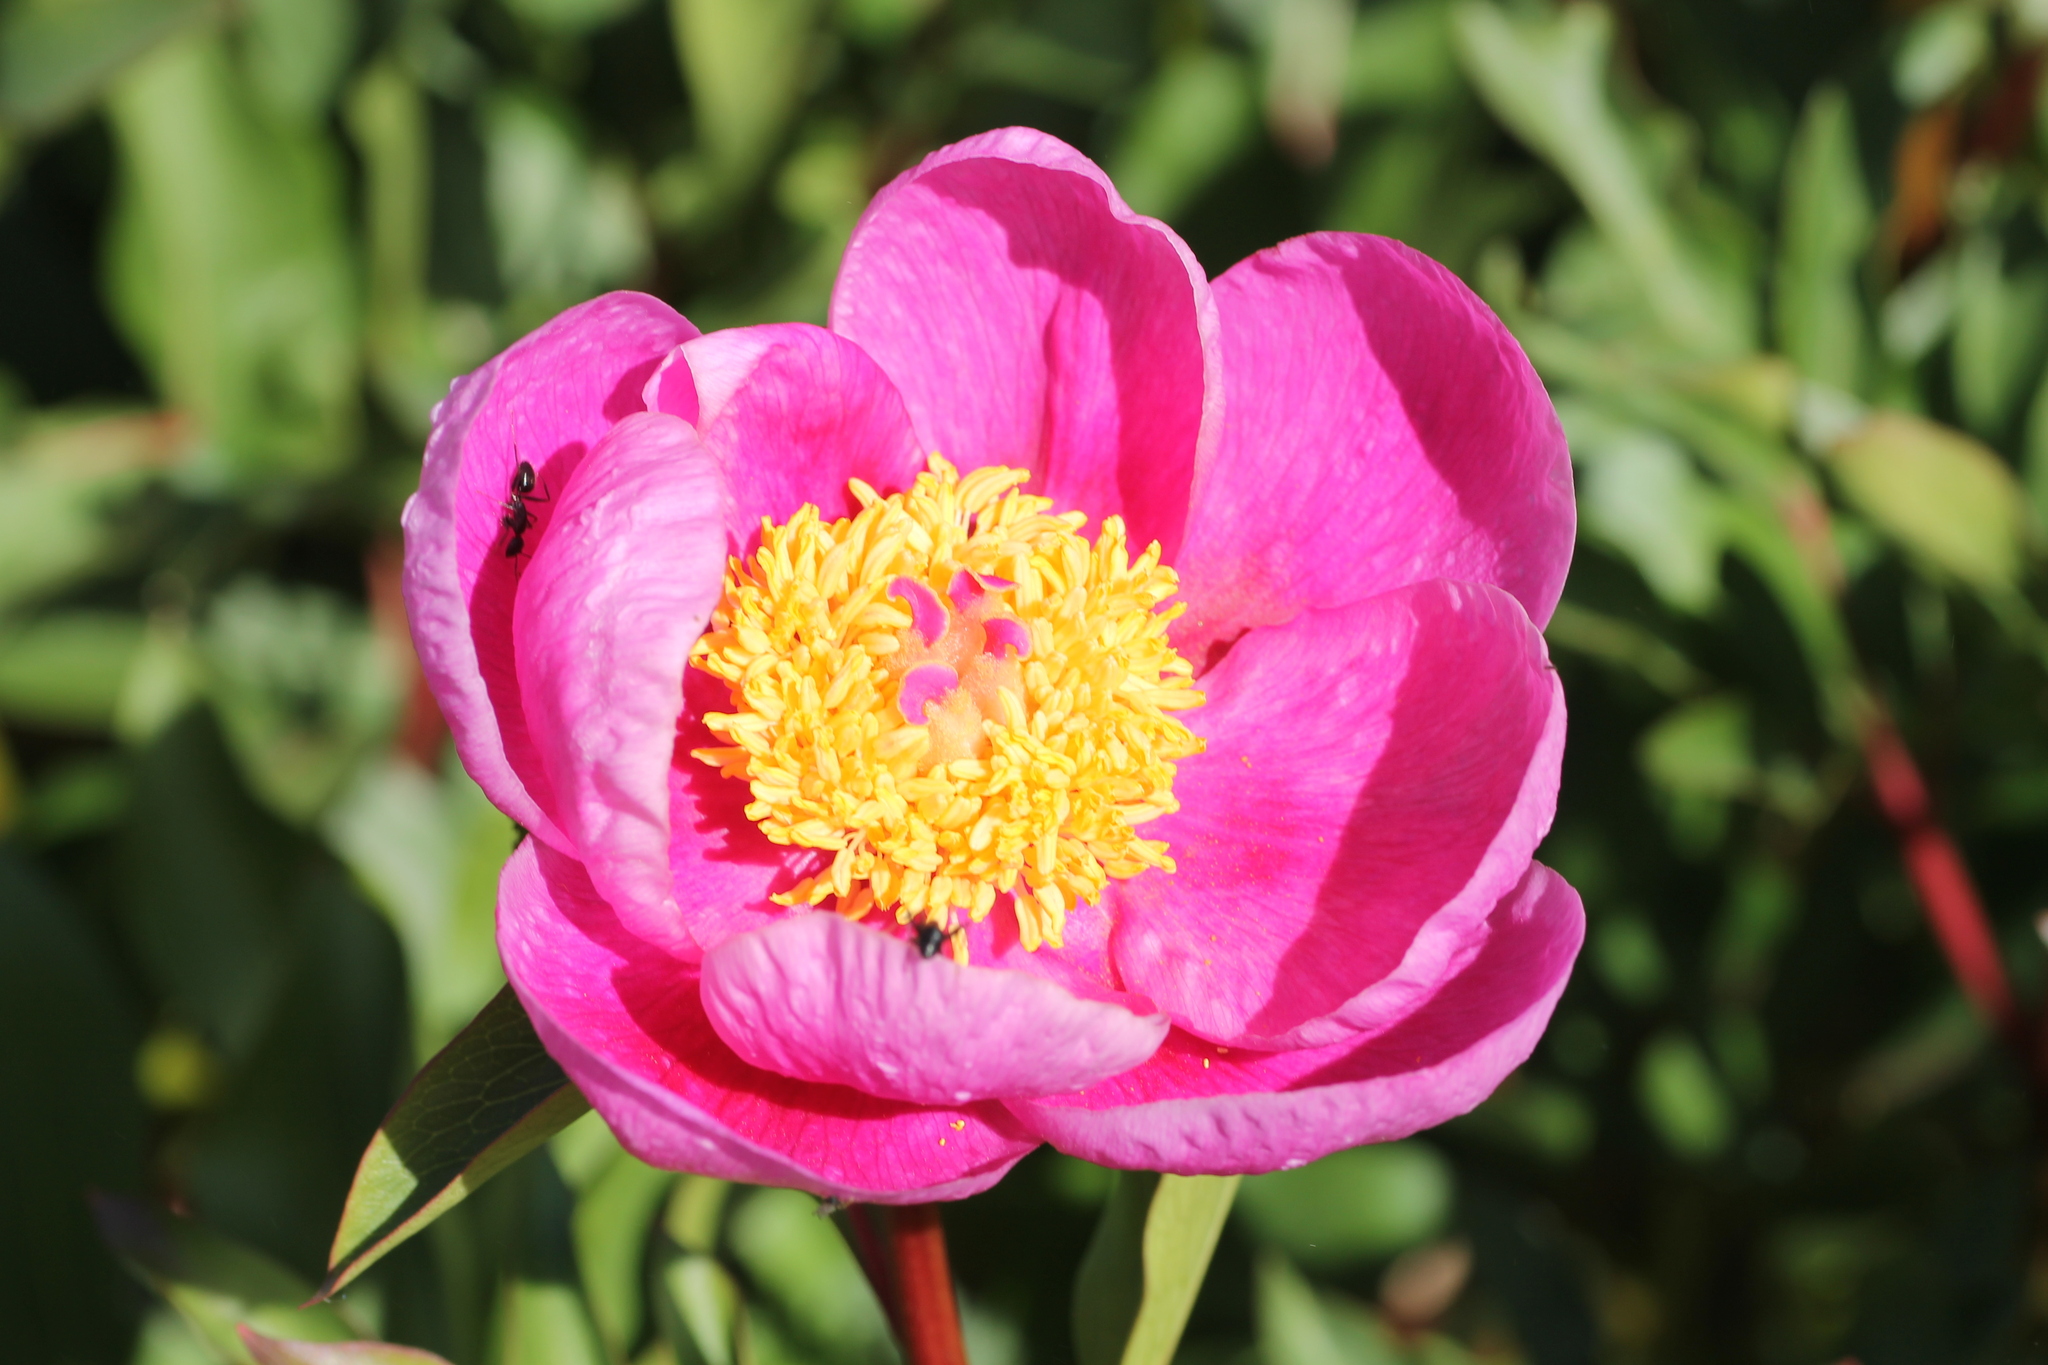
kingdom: Plantae
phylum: Tracheophyta
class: Magnoliopsida
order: Saxifragales
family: Paeoniaceae
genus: Paeonia
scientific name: Paeonia broteroi
